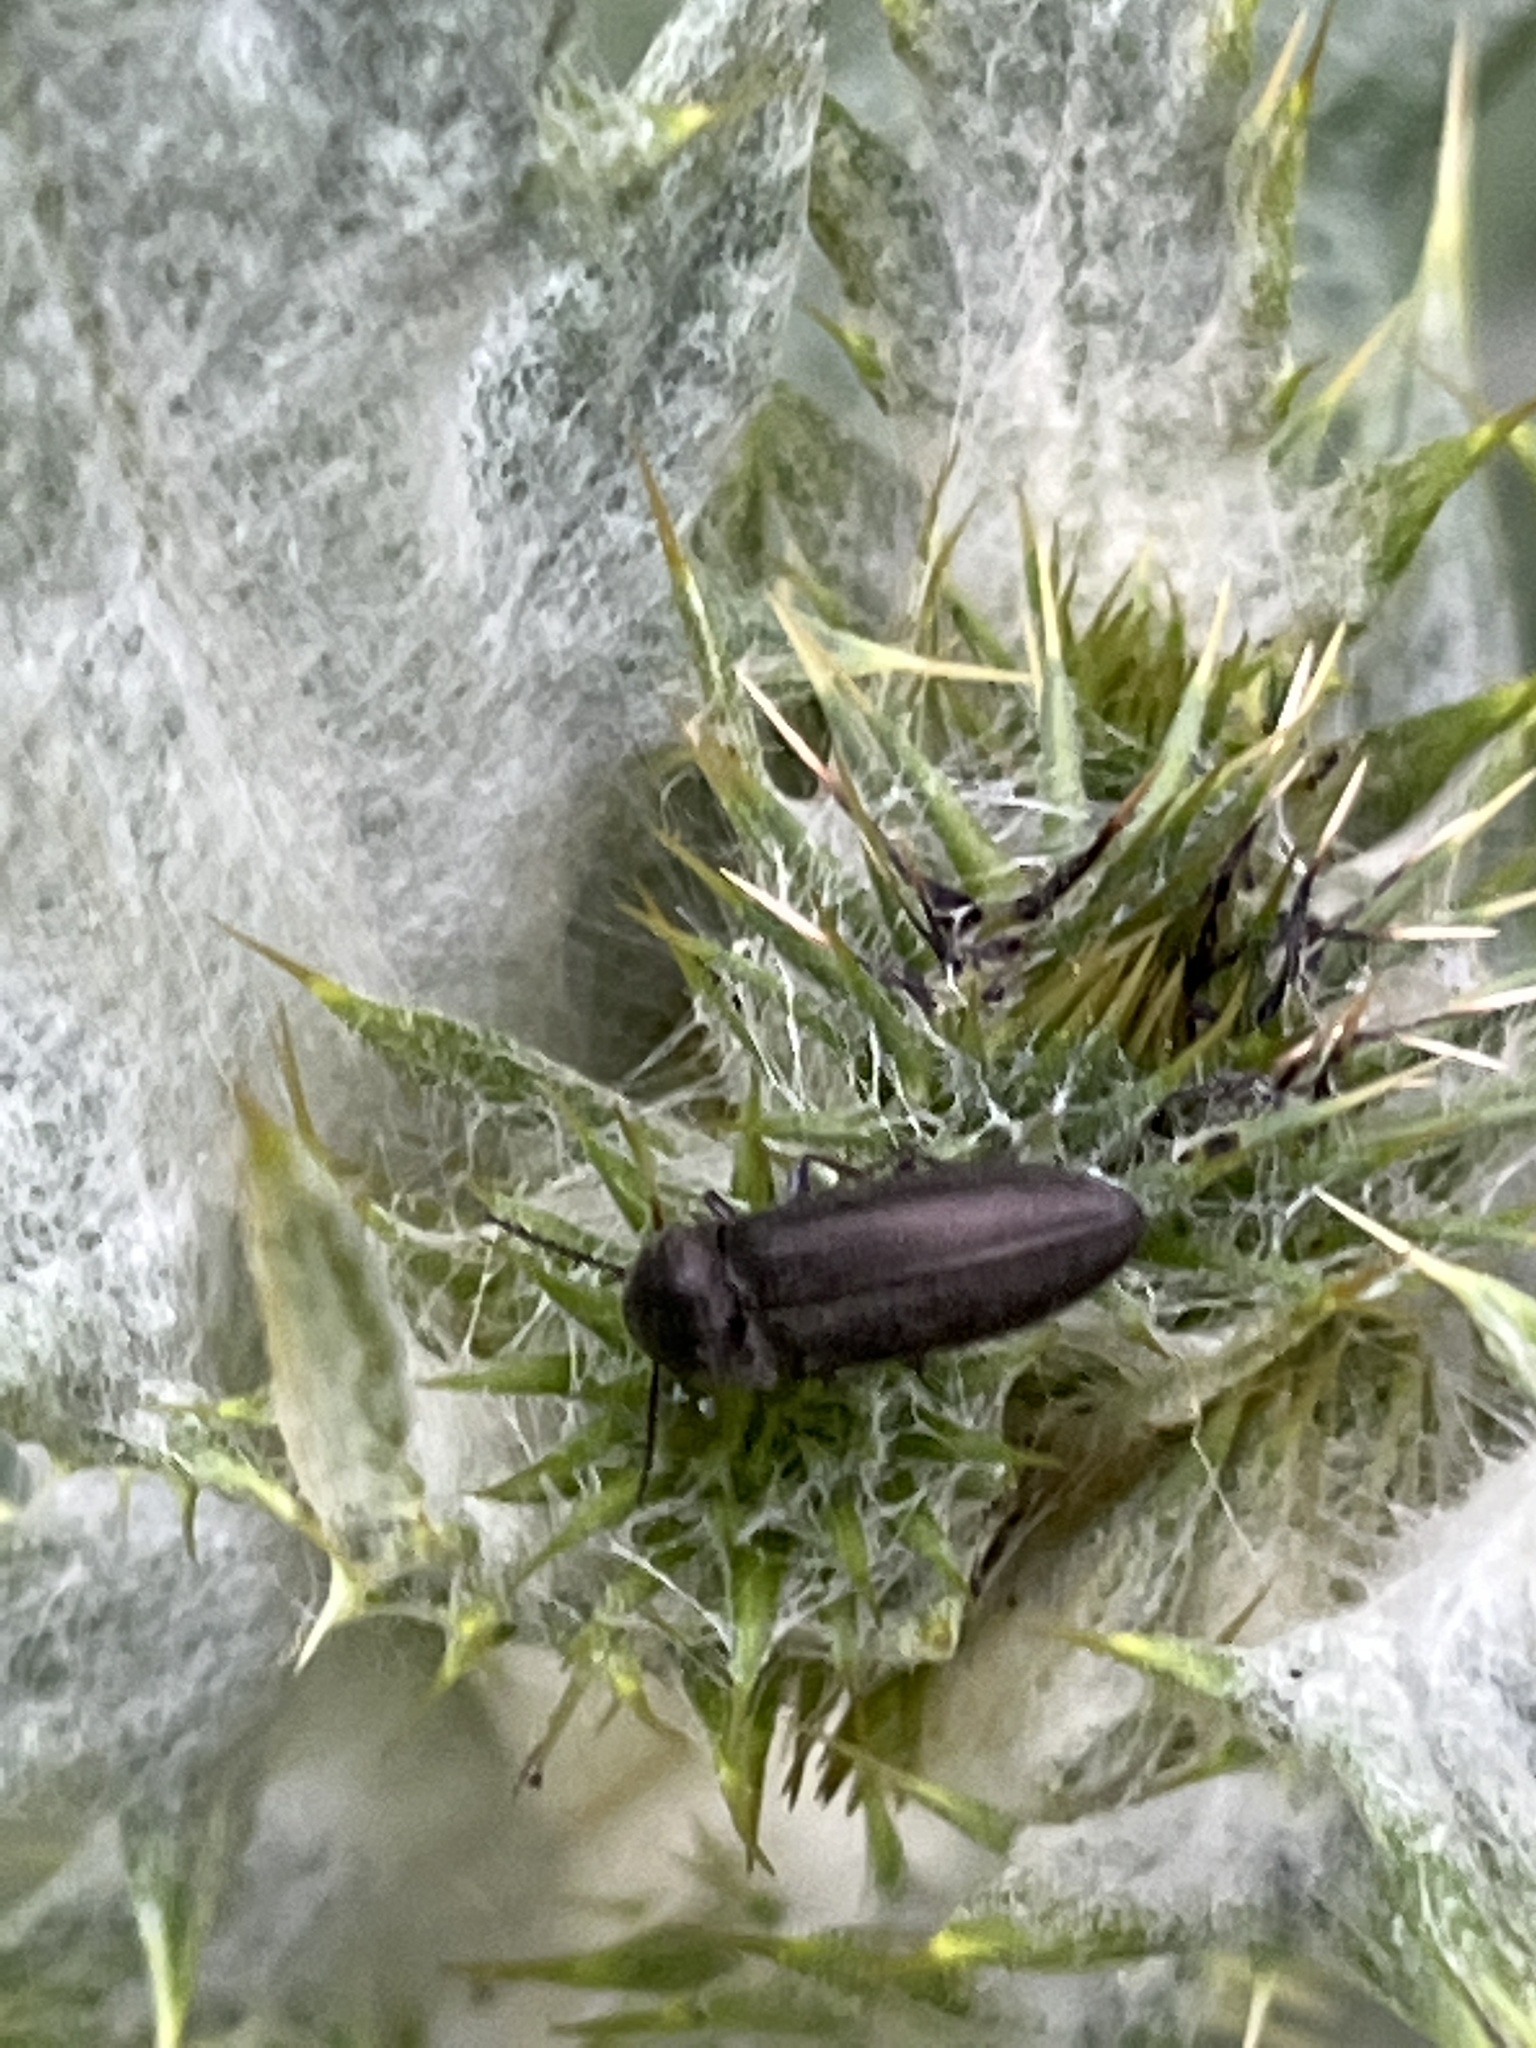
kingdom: Animalia
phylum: Arthropoda
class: Insecta
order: Coleoptera
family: Elateridae
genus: Cidnopus
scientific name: Cidnopus pilosus
